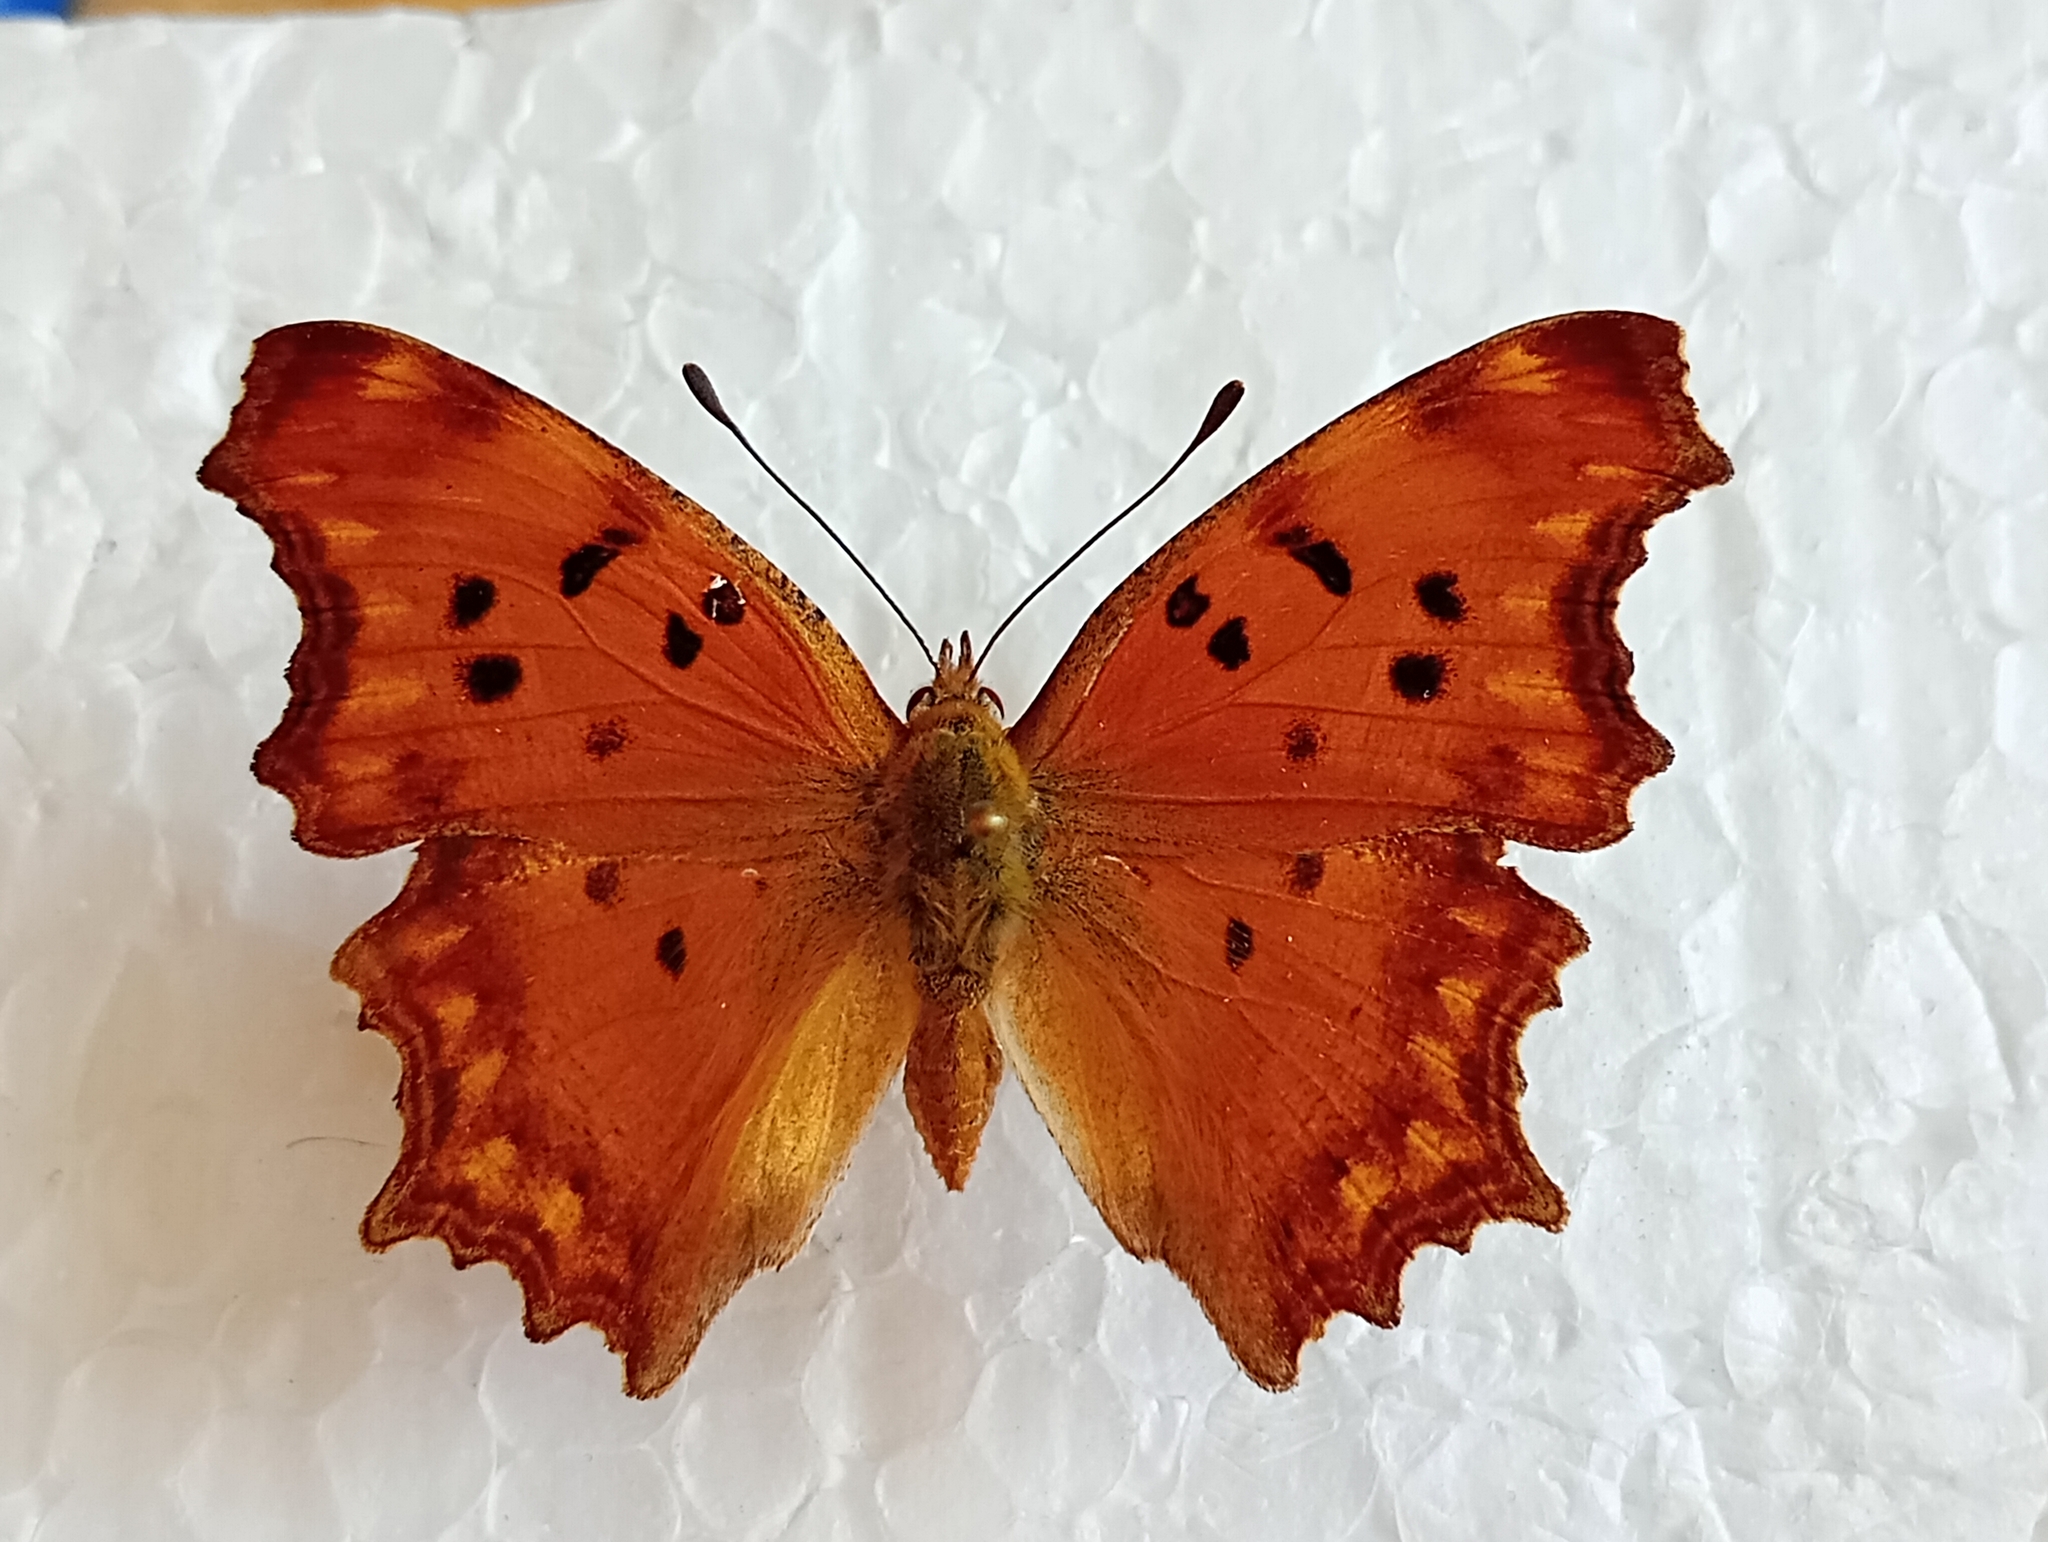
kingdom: Animalia
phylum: Arthropoda
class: Insecta
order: Lepidoptera
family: Nymphalidae
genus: Polygonia
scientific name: Polygonia egea
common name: Southern comma
